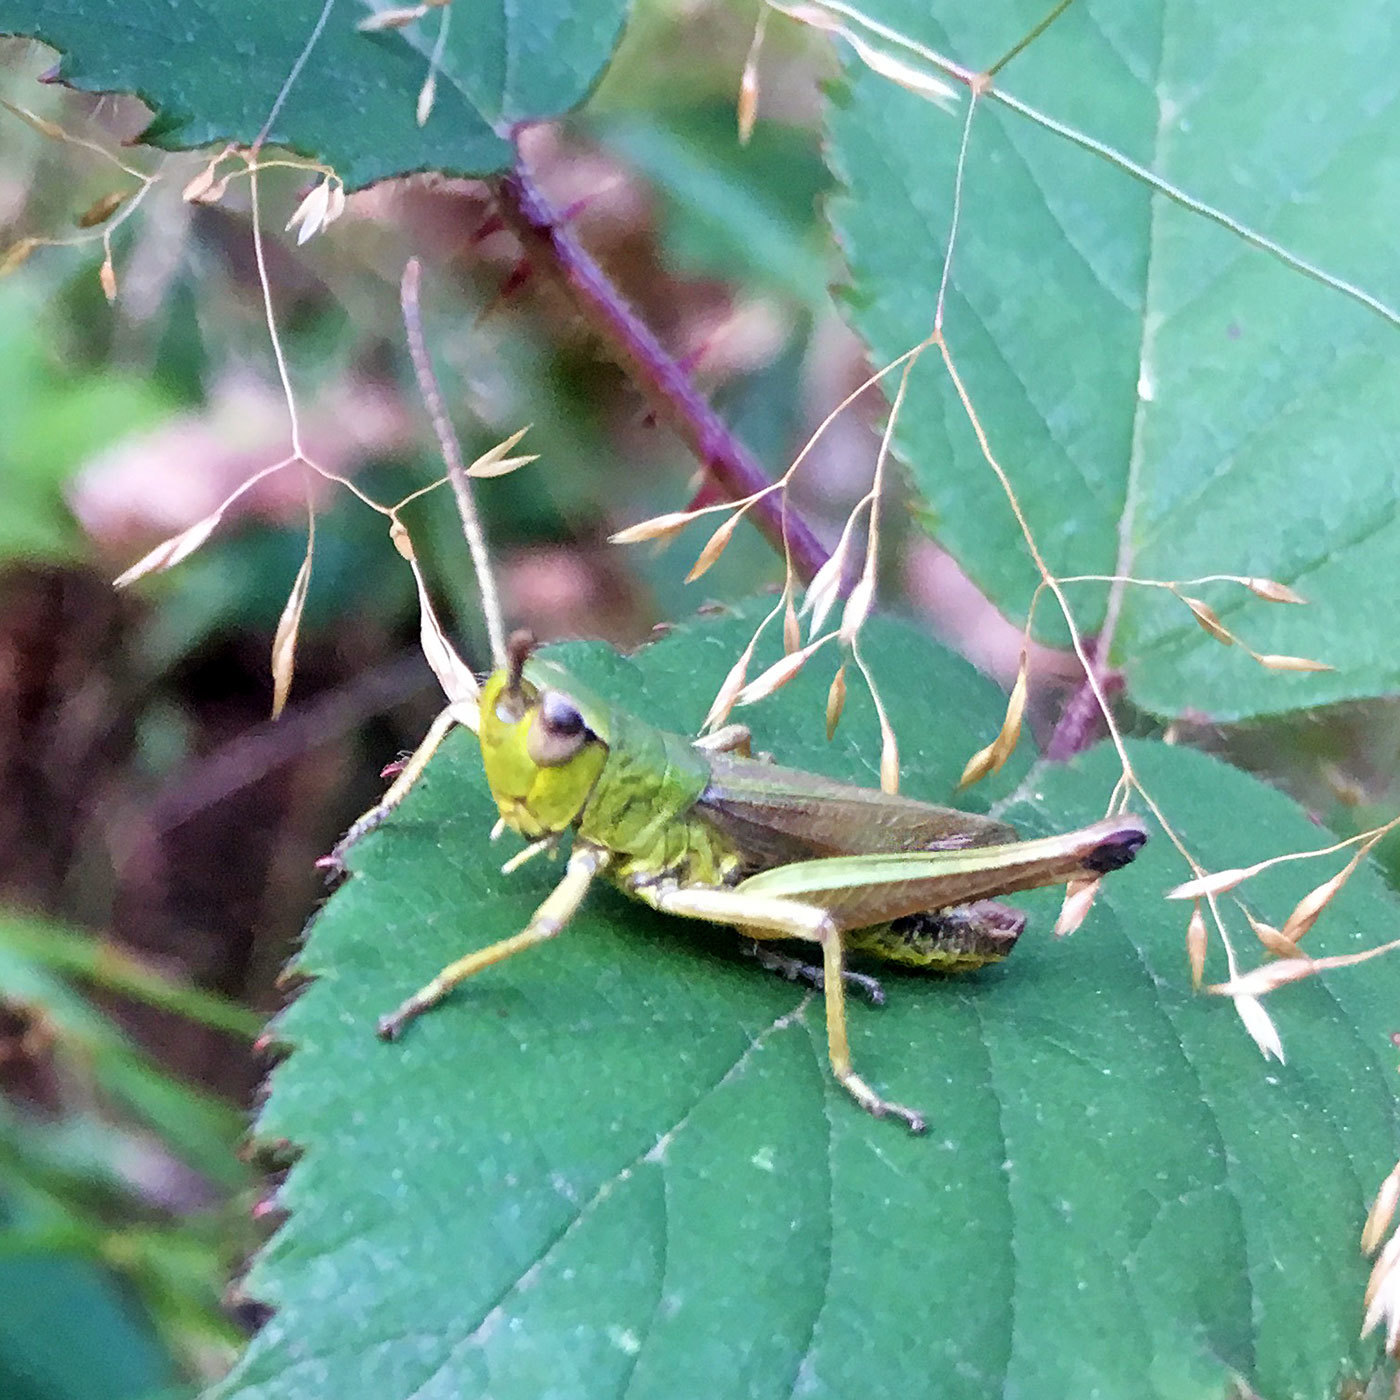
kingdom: Animalia
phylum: Arthropoda
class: Insecta
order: Orthoptera
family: Acrididae
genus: Pseudochorthippus
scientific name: Pseudochorthippus parallelus
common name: Meadow grasshopper
